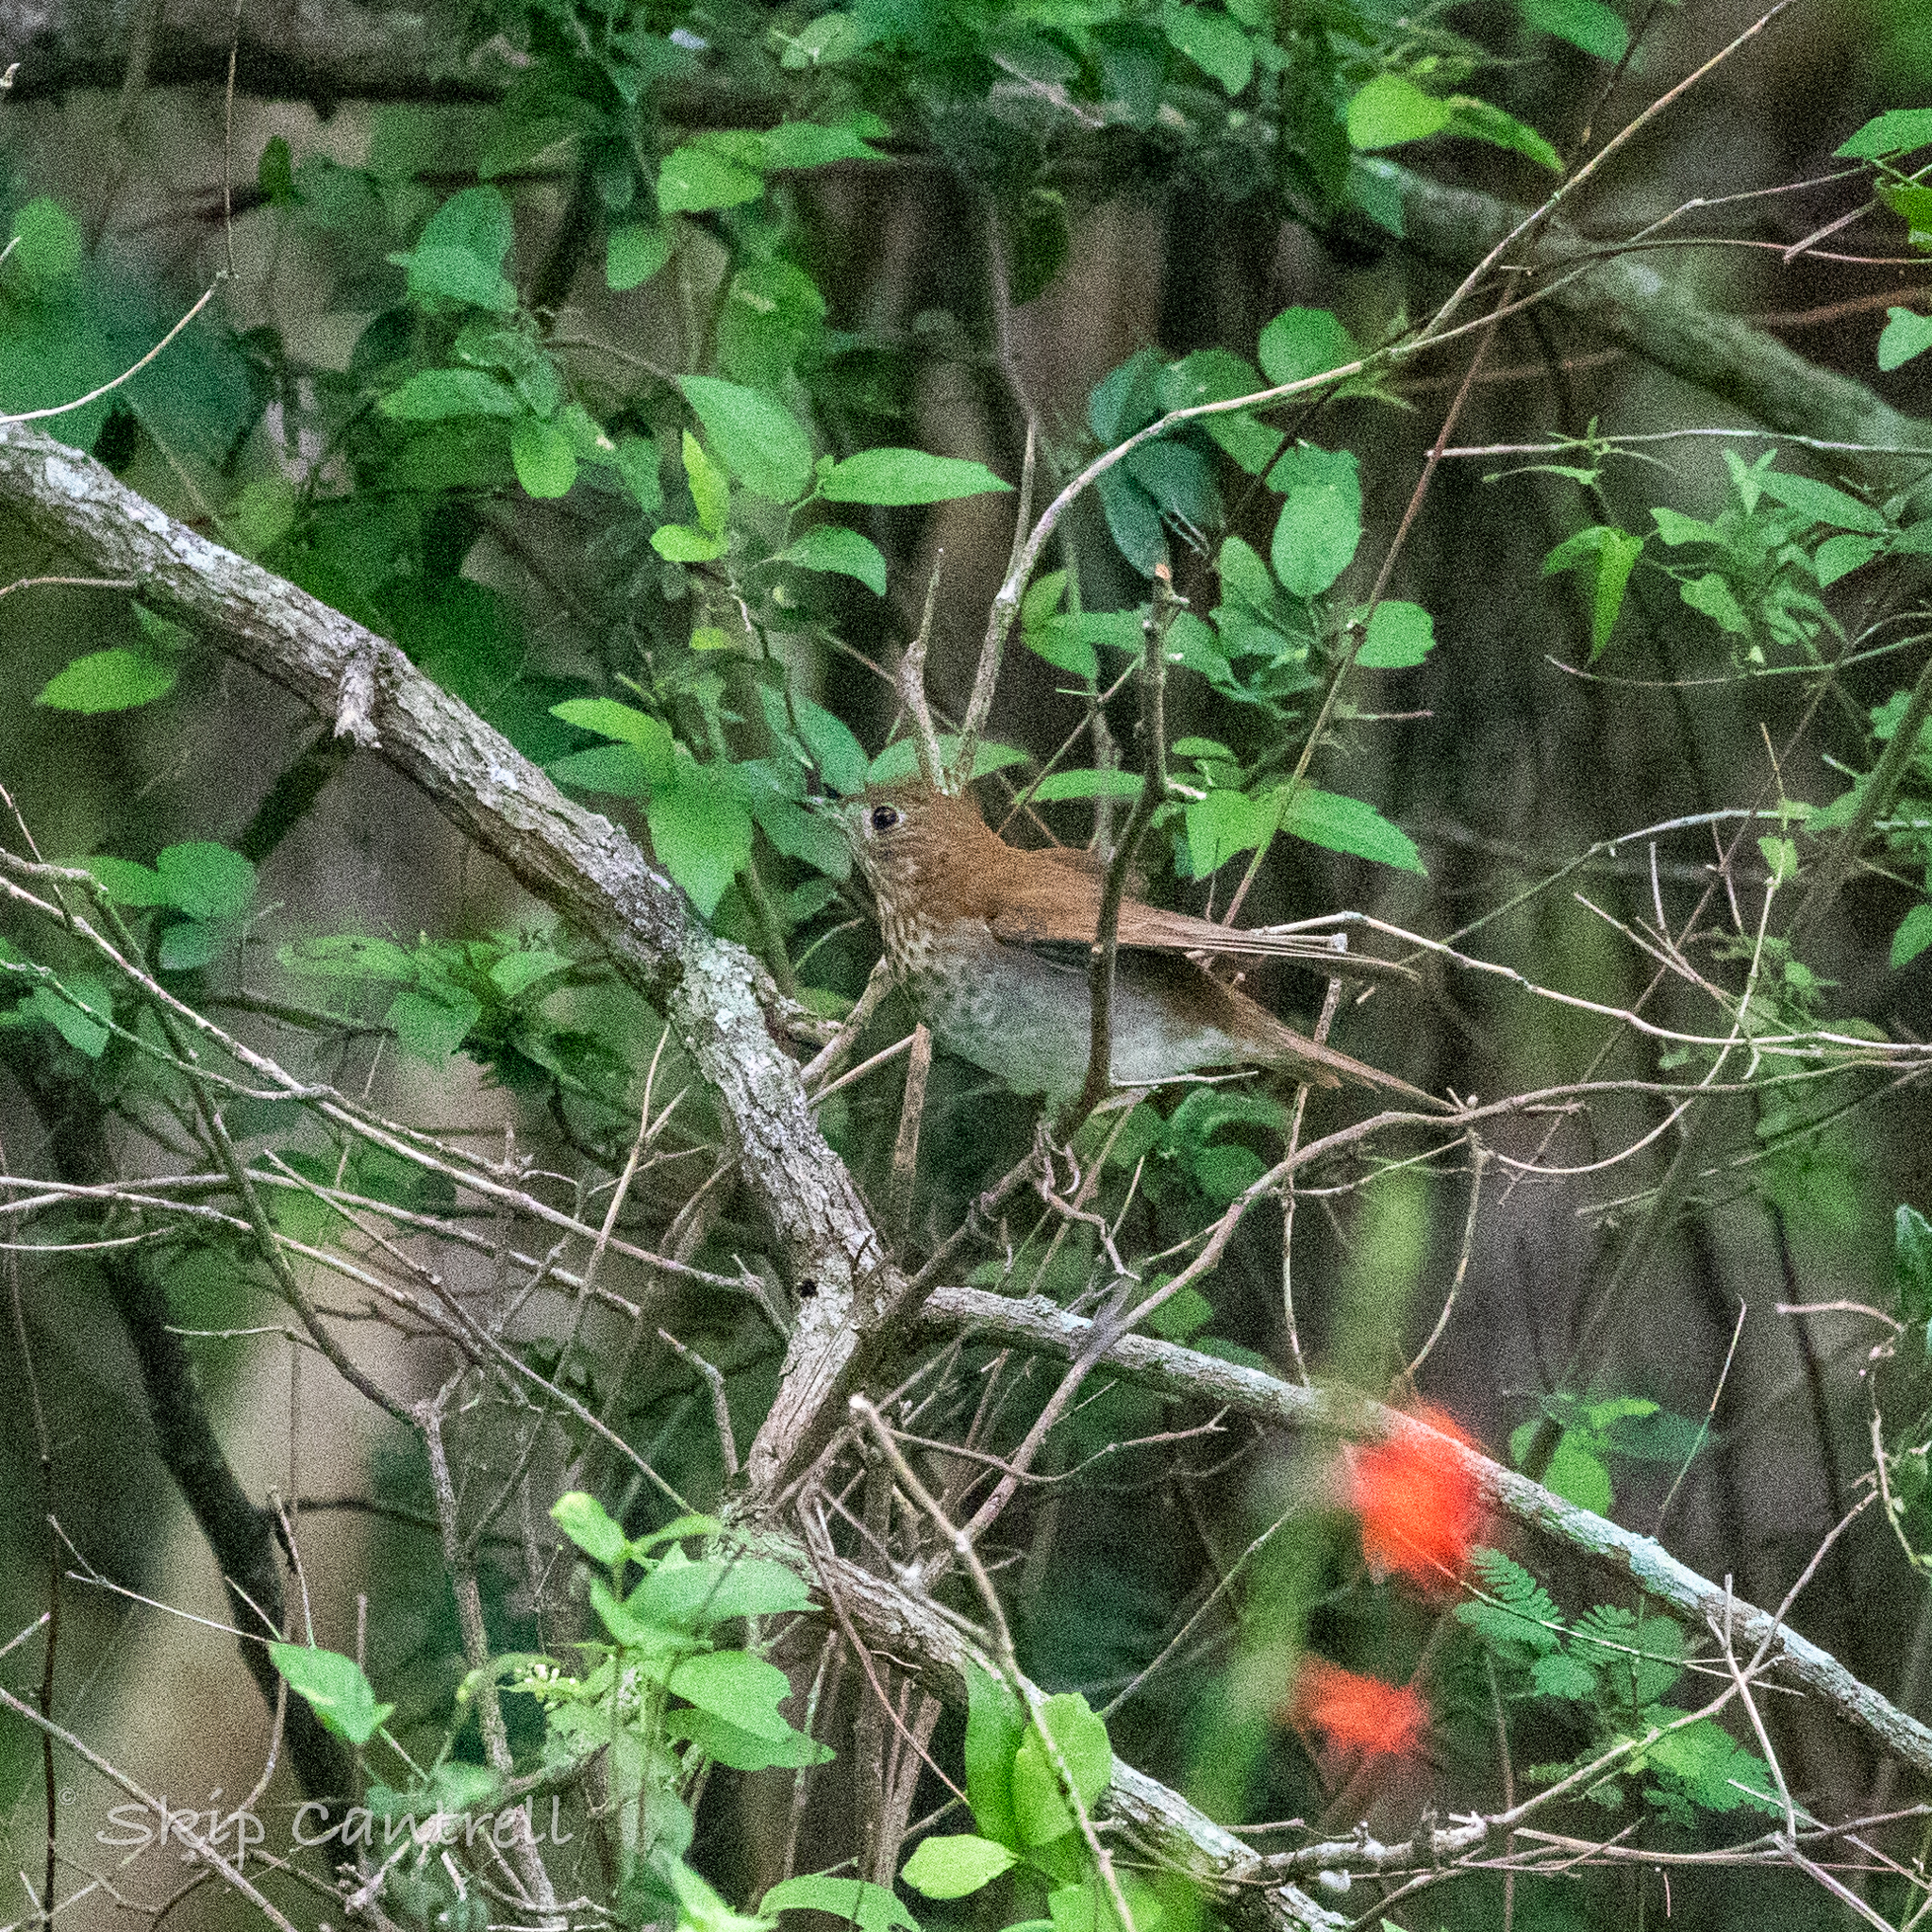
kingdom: Animalia
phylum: Chordata
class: Aves
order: Passeriformes
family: Turdidae
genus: Catharus
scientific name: Catharus fuscescens
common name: Veery
